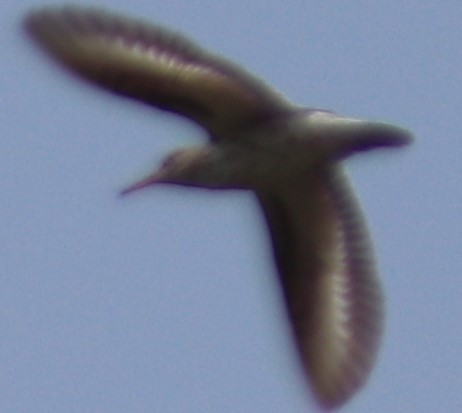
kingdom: Animalia
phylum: Chordata
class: Aves
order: Charadriiformes
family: Scolopacidae
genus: Actitis
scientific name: Actitis macularius
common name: Spotted sandpiper
